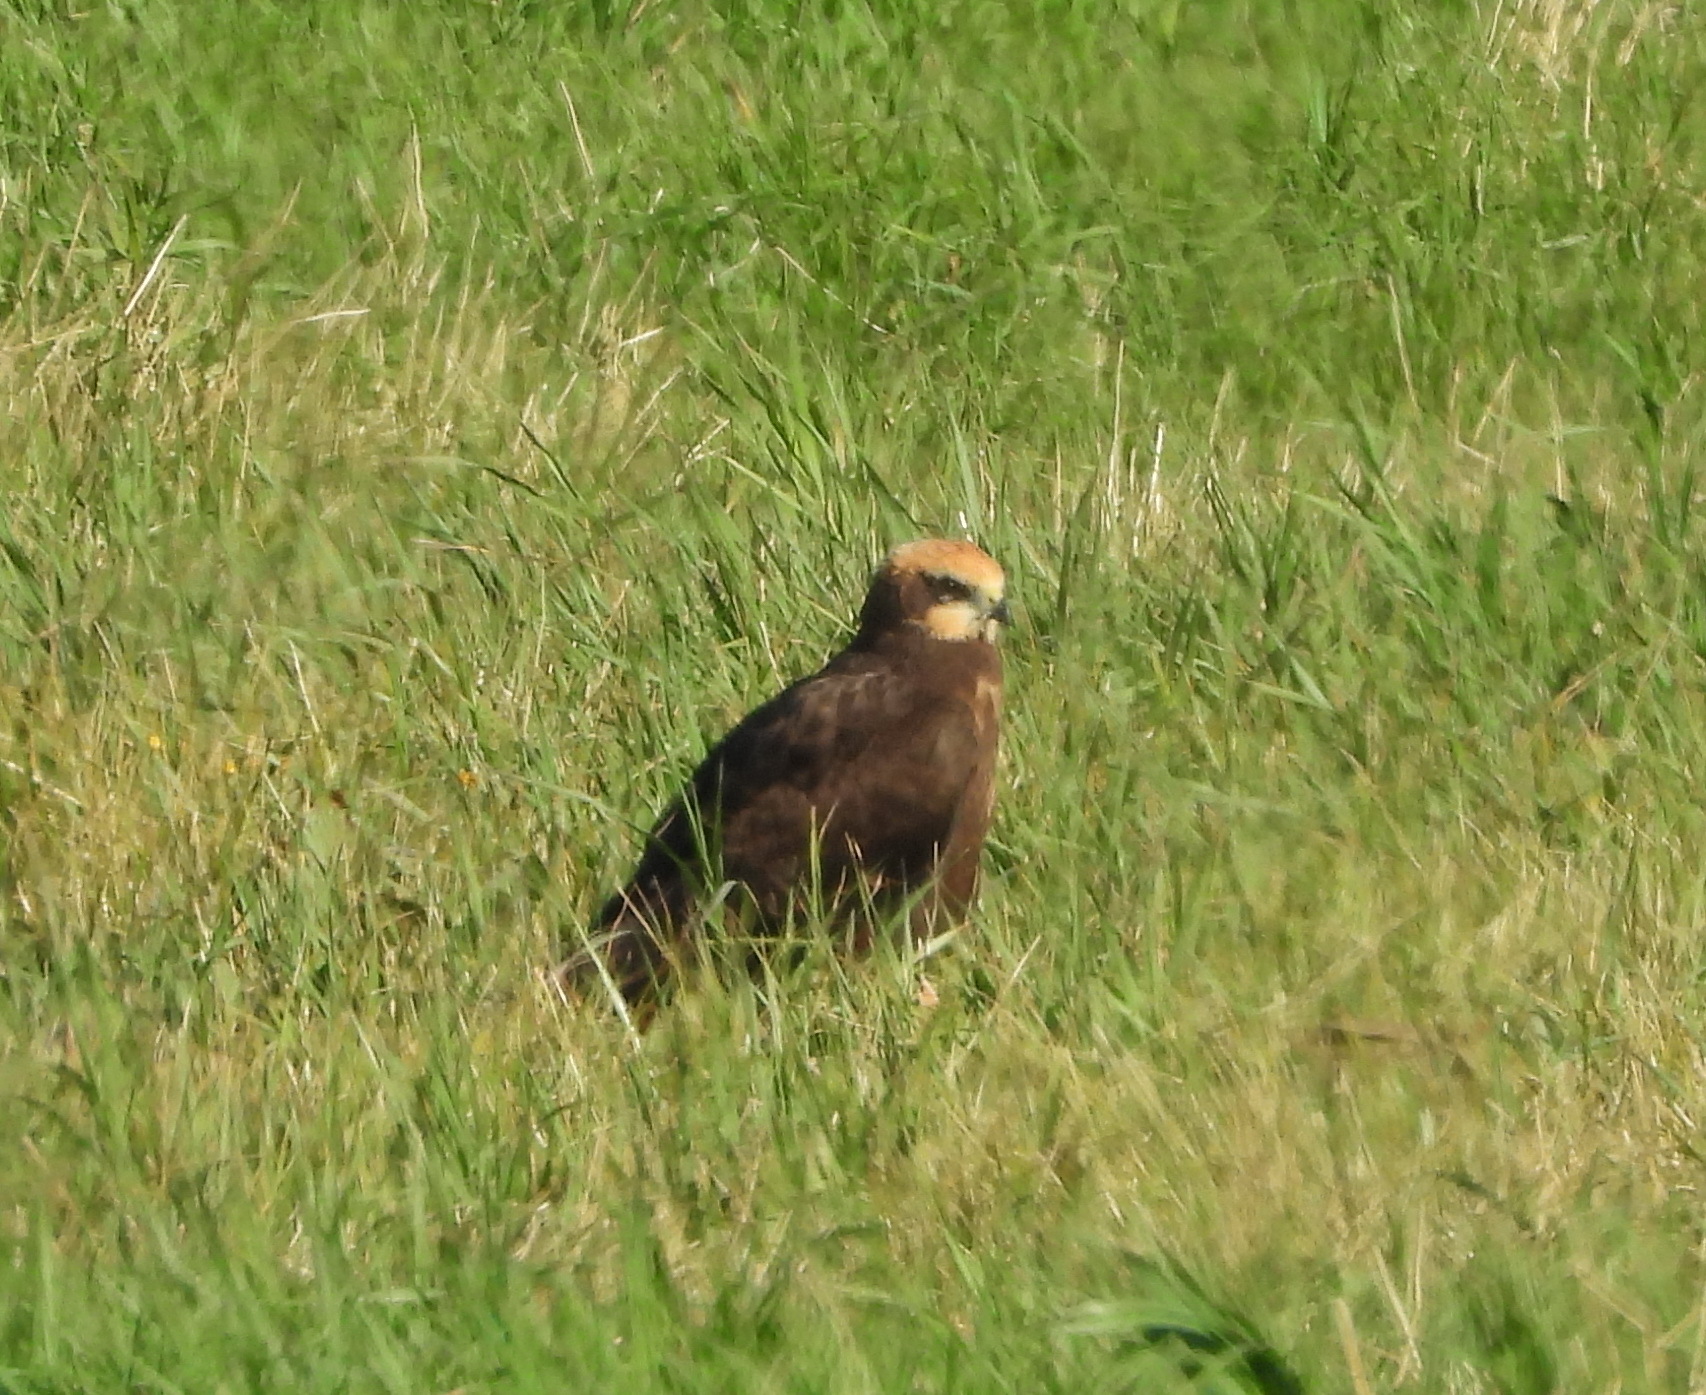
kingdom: Animalia
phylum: Chordata
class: Aves
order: Accipitriformes
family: Accipitridae
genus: Circus
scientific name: Circus aeruginosus
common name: Western marsh harrier
